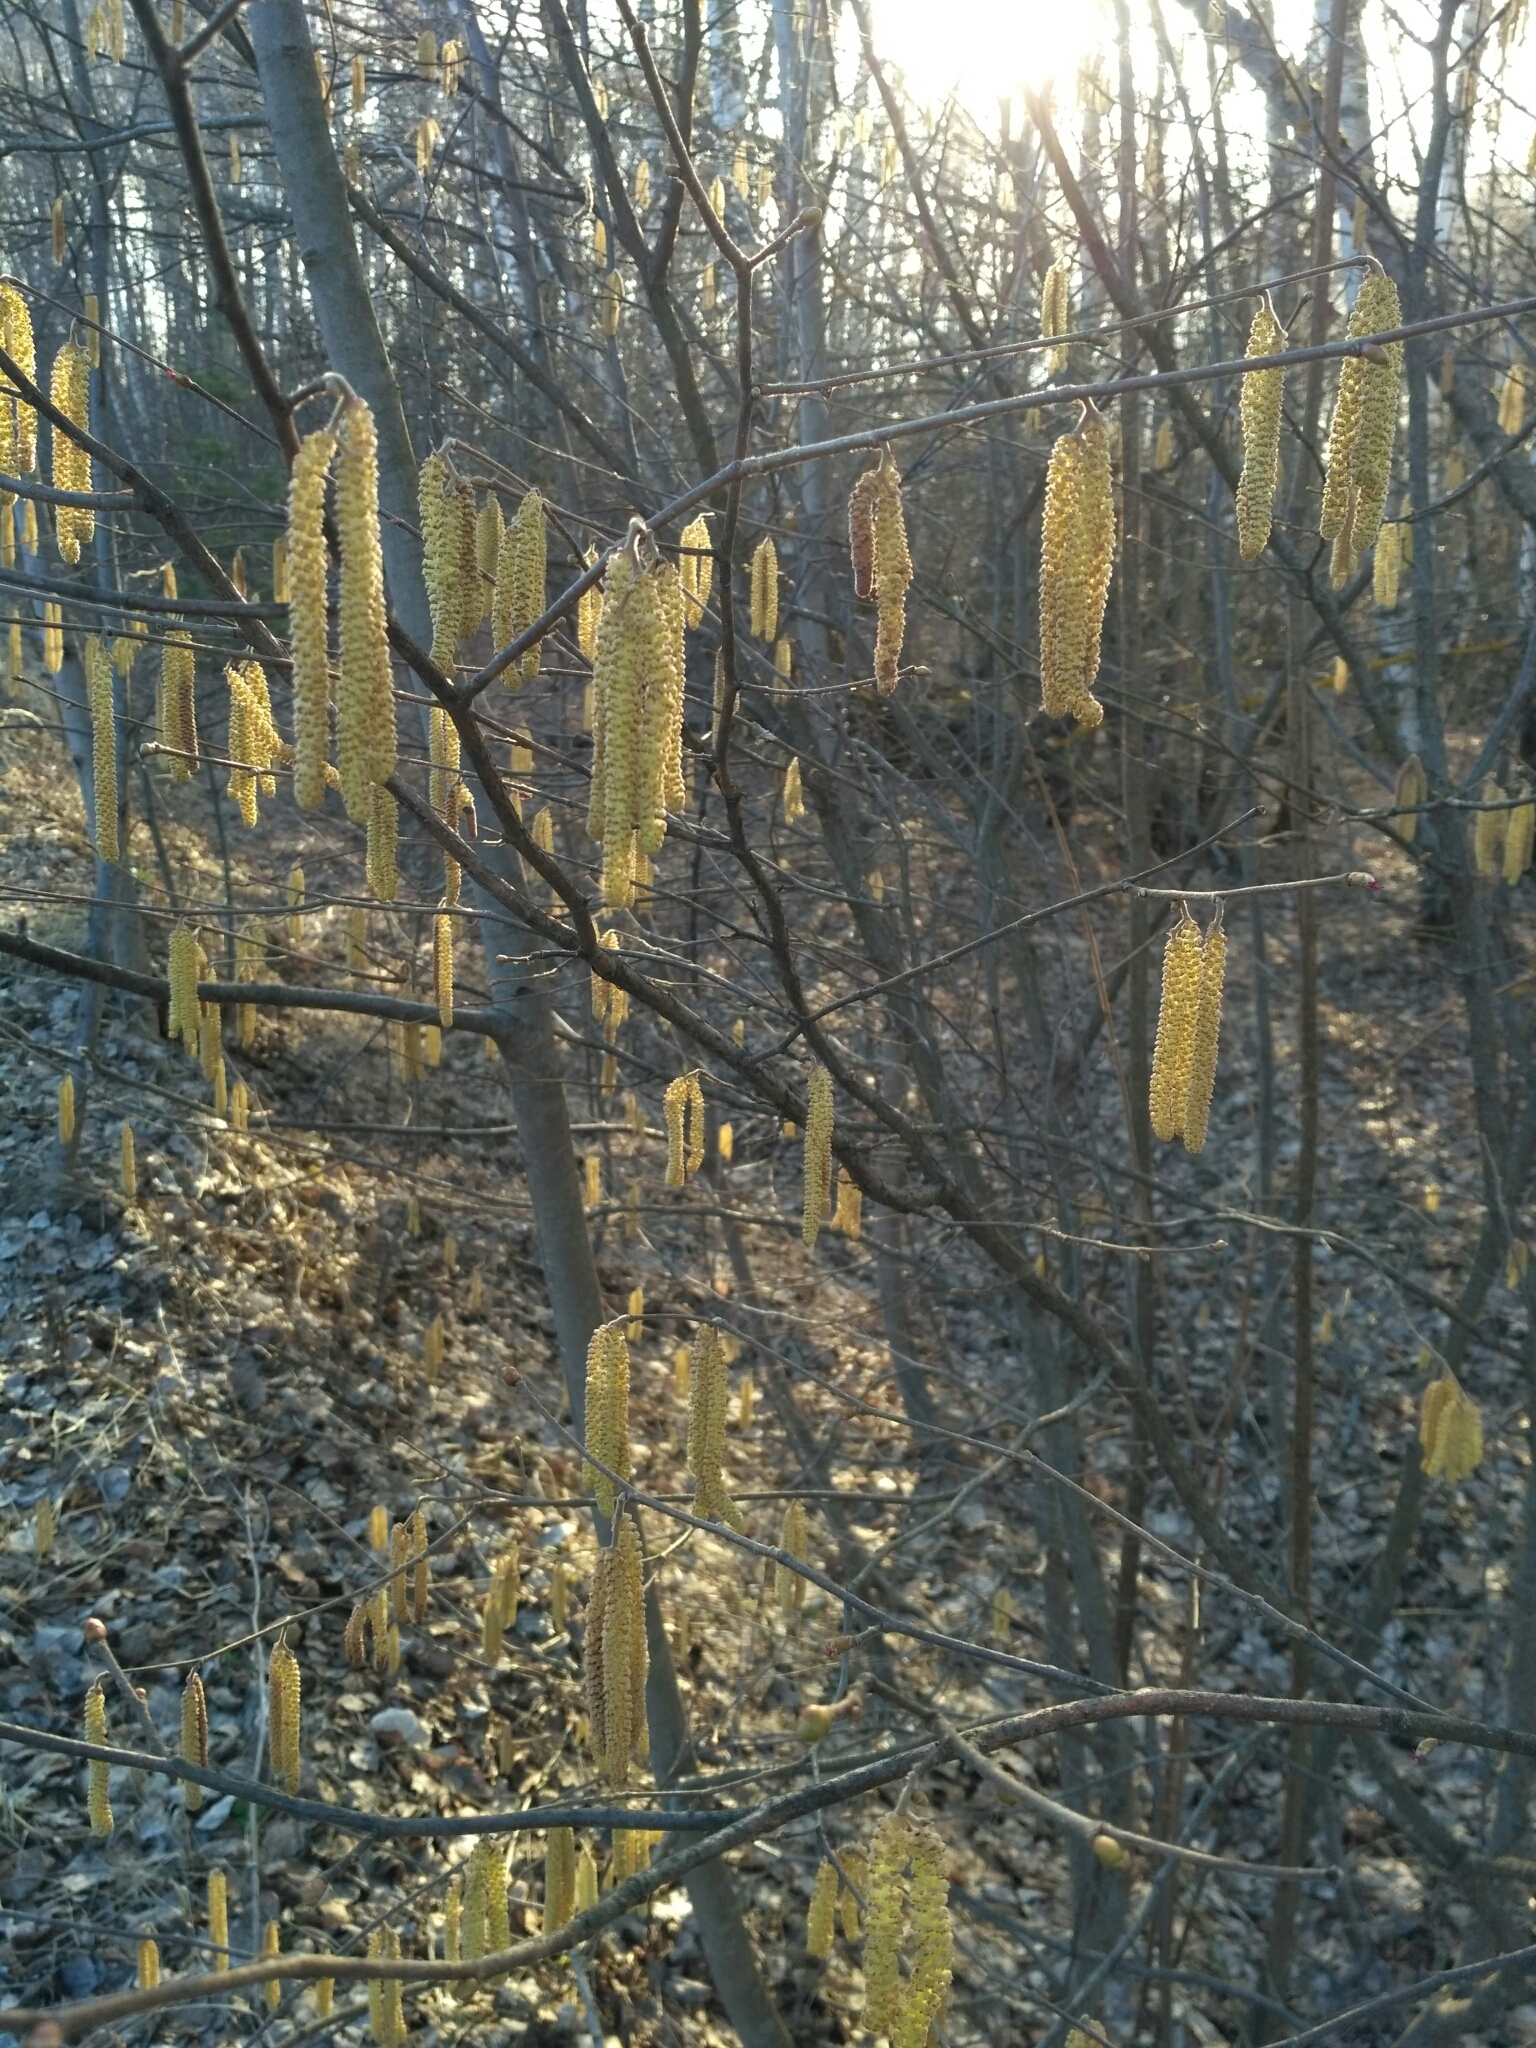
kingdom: Plantae
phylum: Tracheophyta
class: Magnoliopsida
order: Fagales
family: Betulaceae
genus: Corylus
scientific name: Corylus avellana
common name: European hazel
